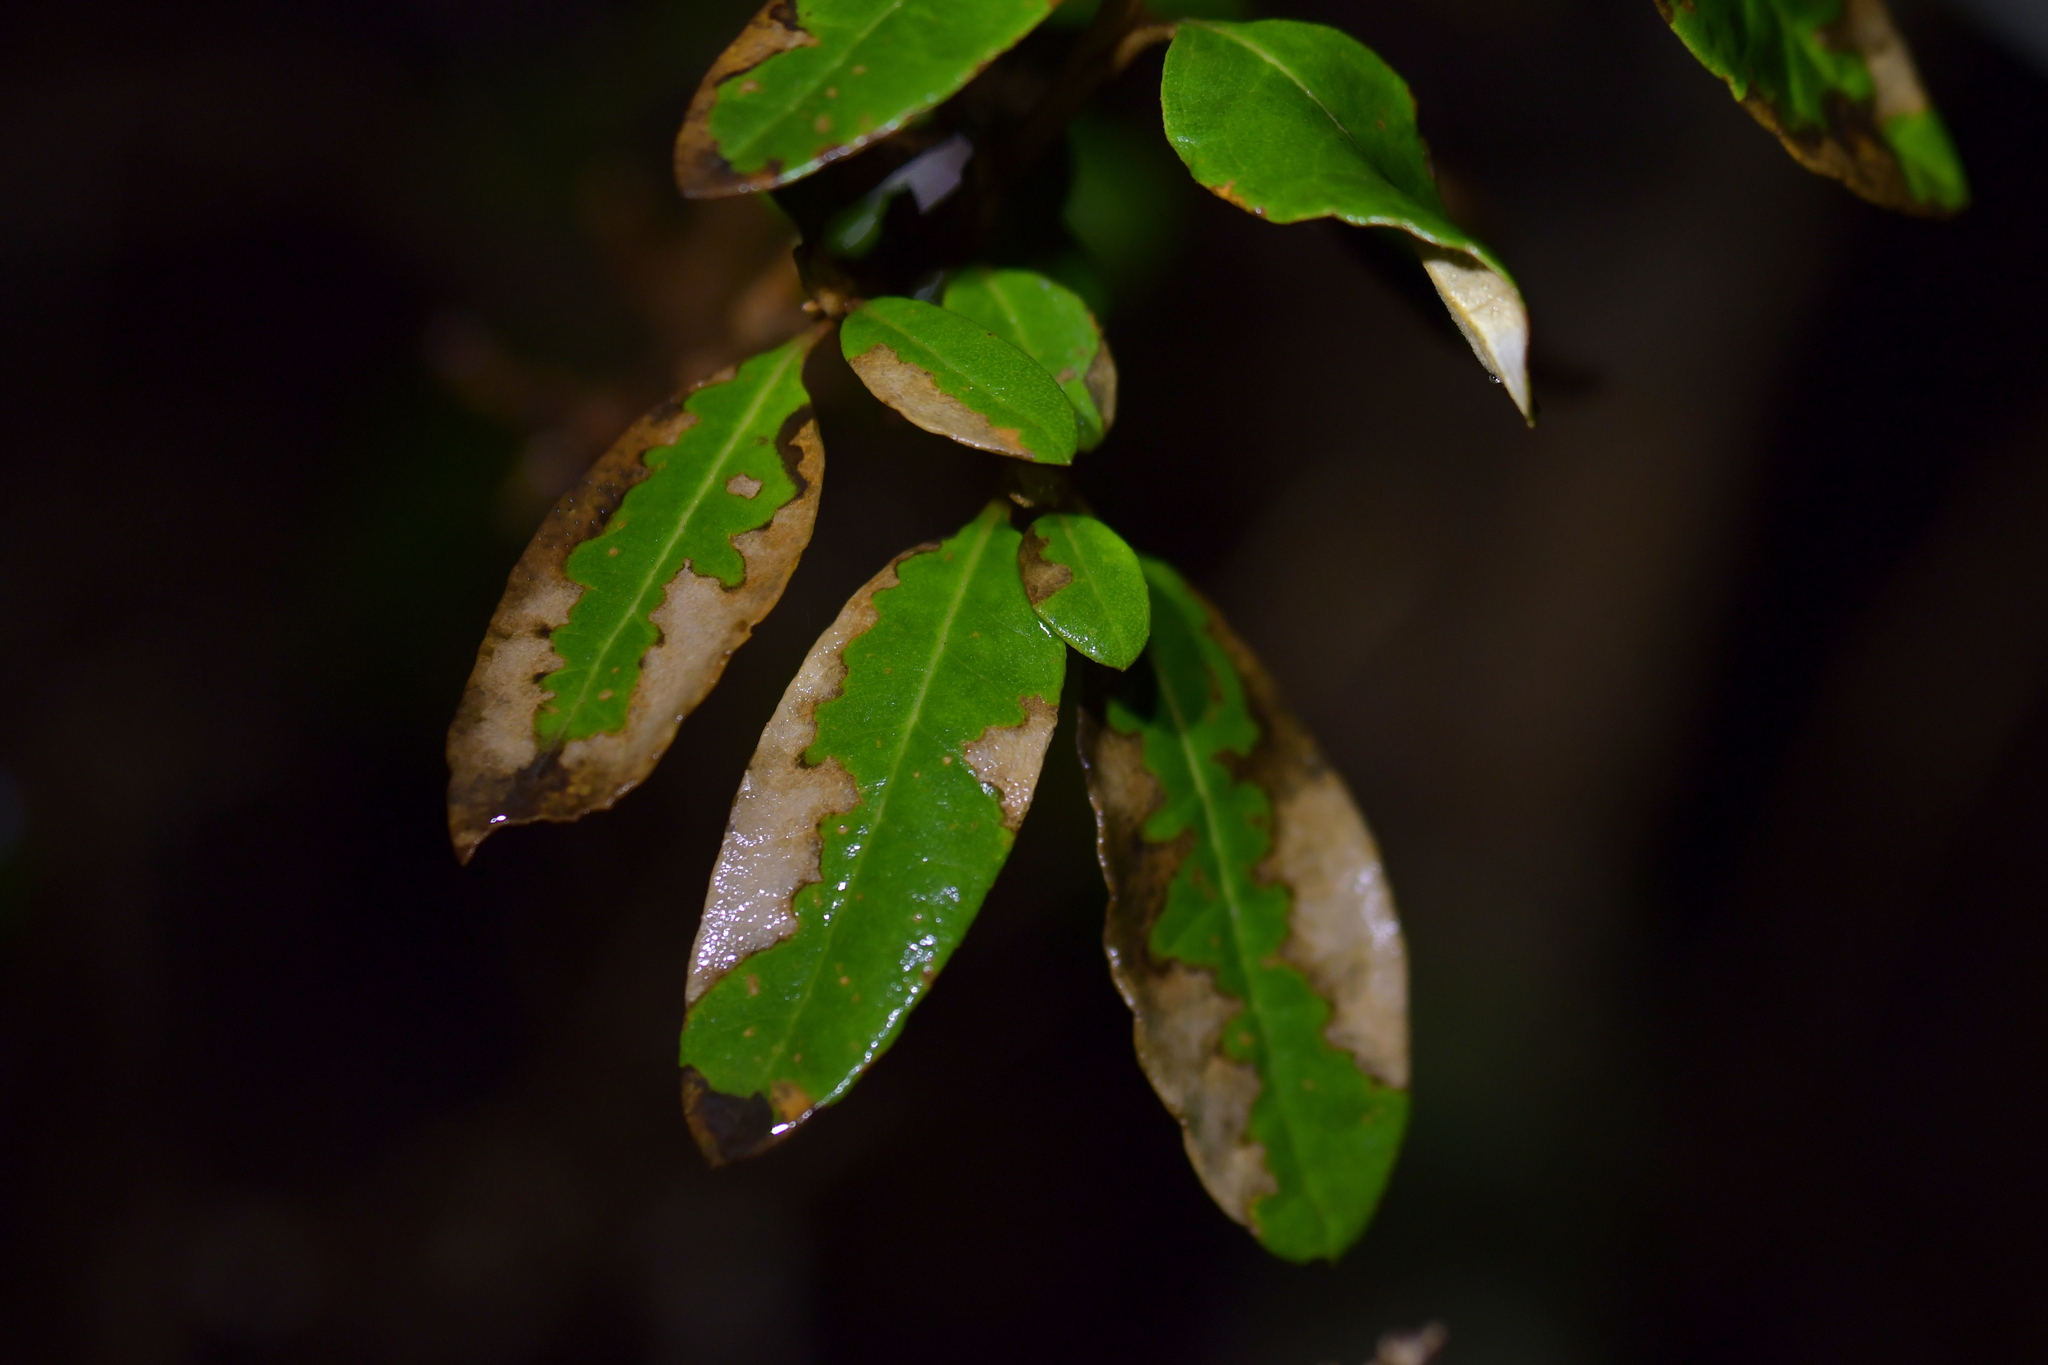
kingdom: Plantae
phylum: Tracheophyta
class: Magnoliopsida
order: Asterales
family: Asteraceae
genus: Olearia
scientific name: Olearia avicenniifolia
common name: Mangrove-leaf daisybush
